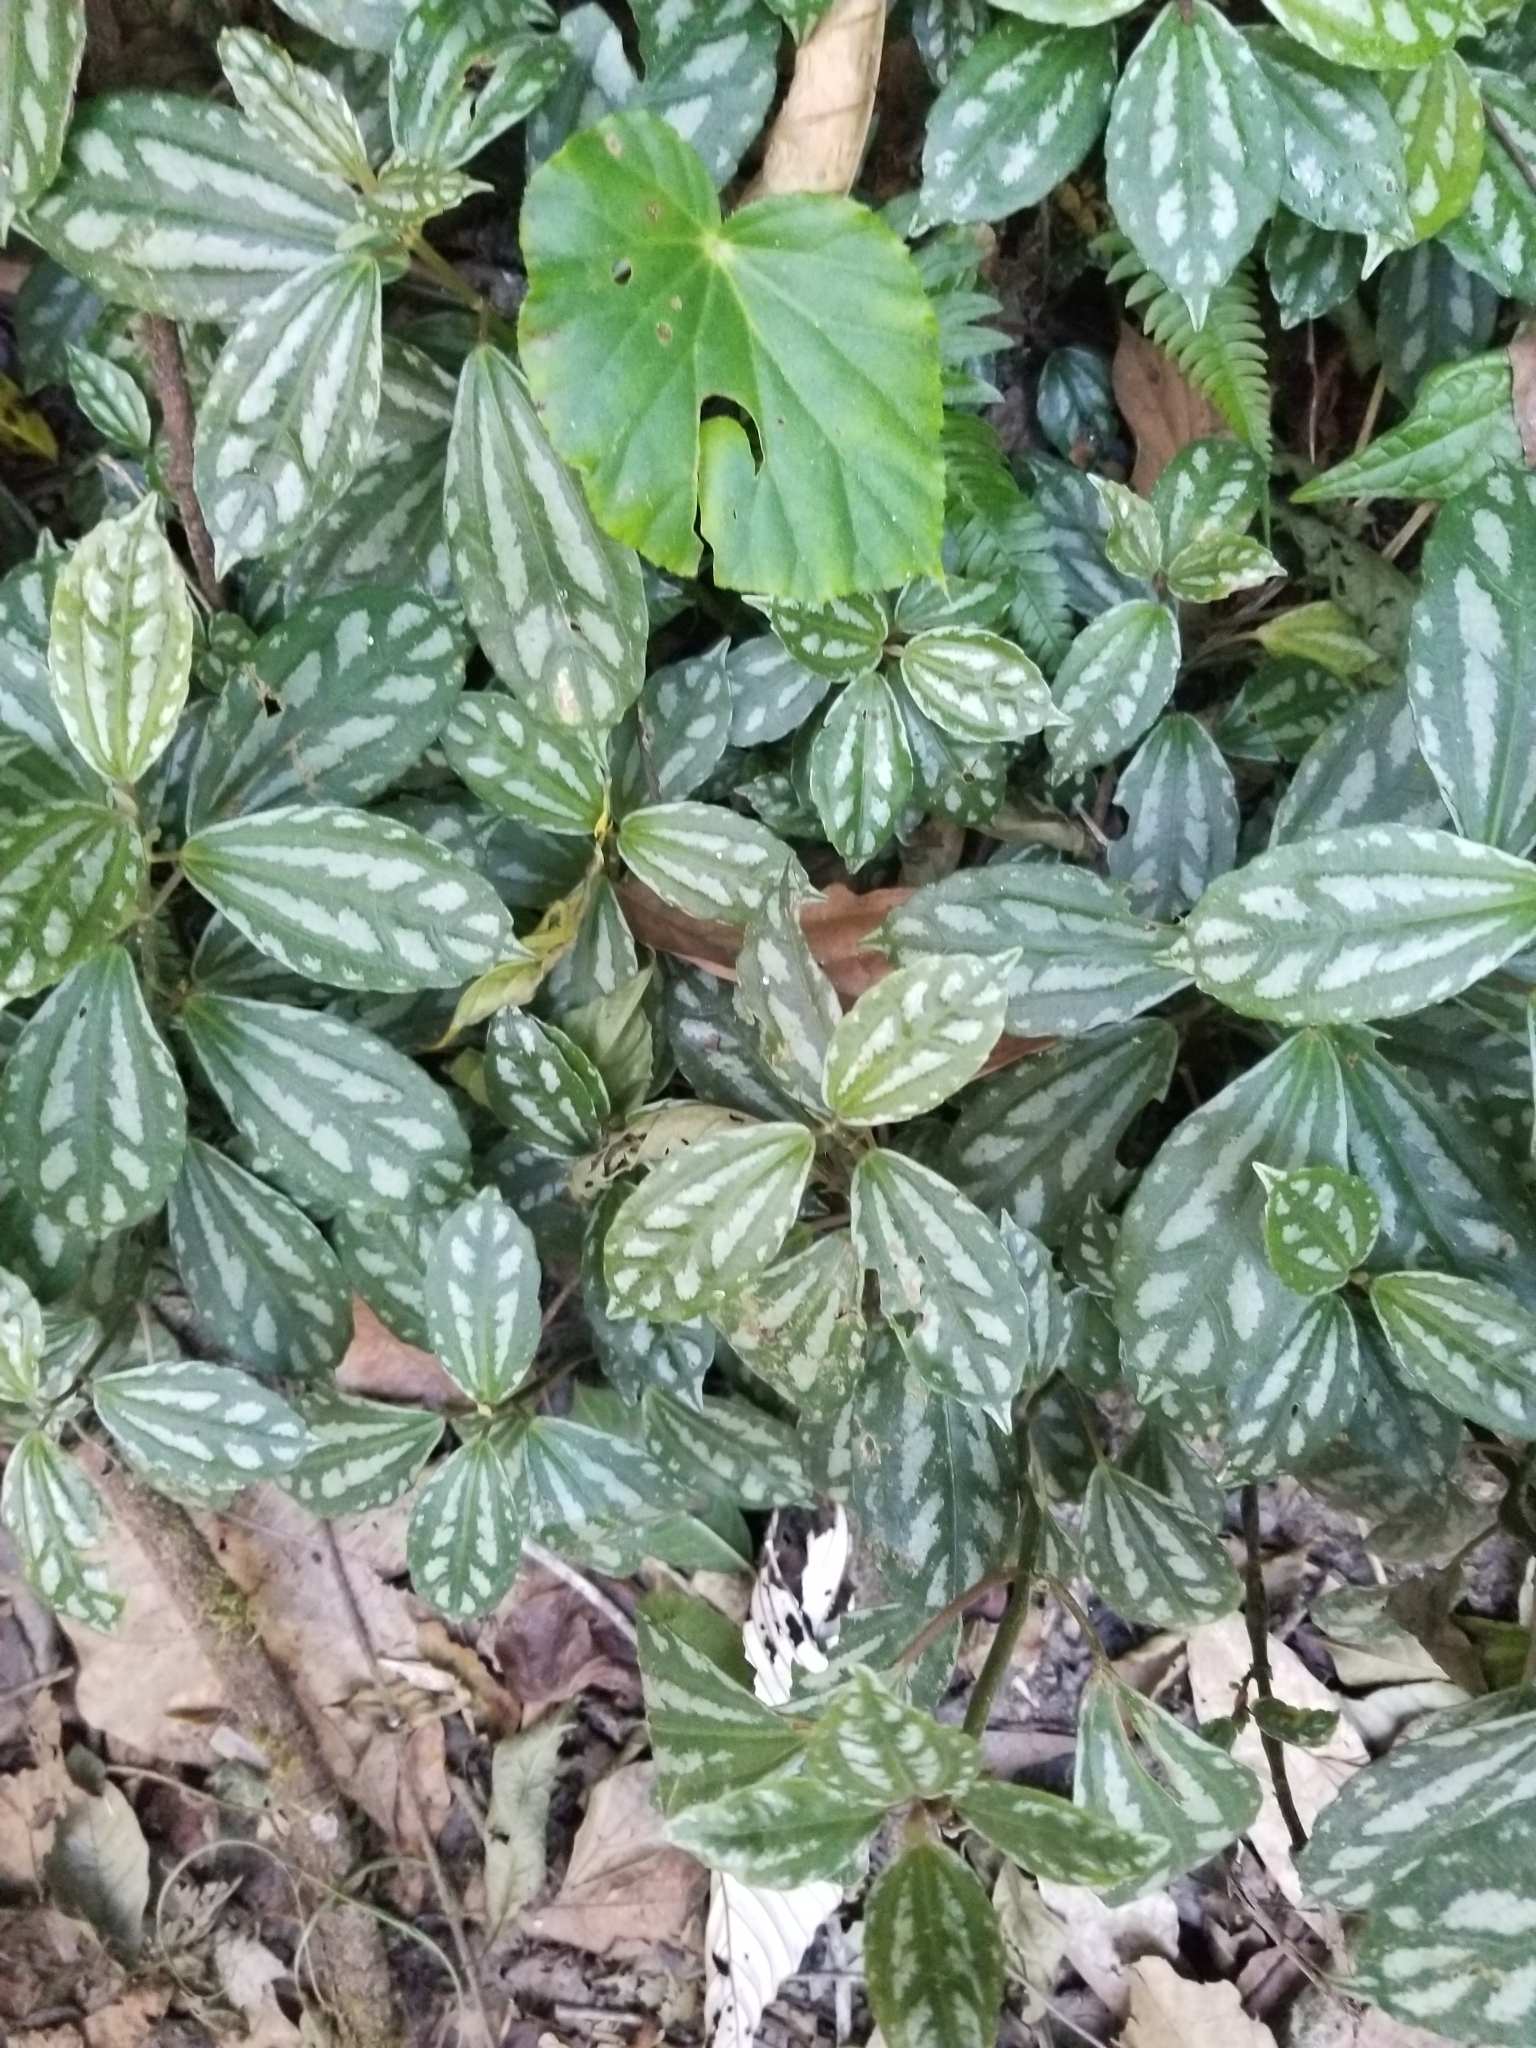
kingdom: Plantae
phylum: Tracheophyta
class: Magnoliopsida
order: Rosales
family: Urticaceae
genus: Pilea
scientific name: Pilea cadierei
